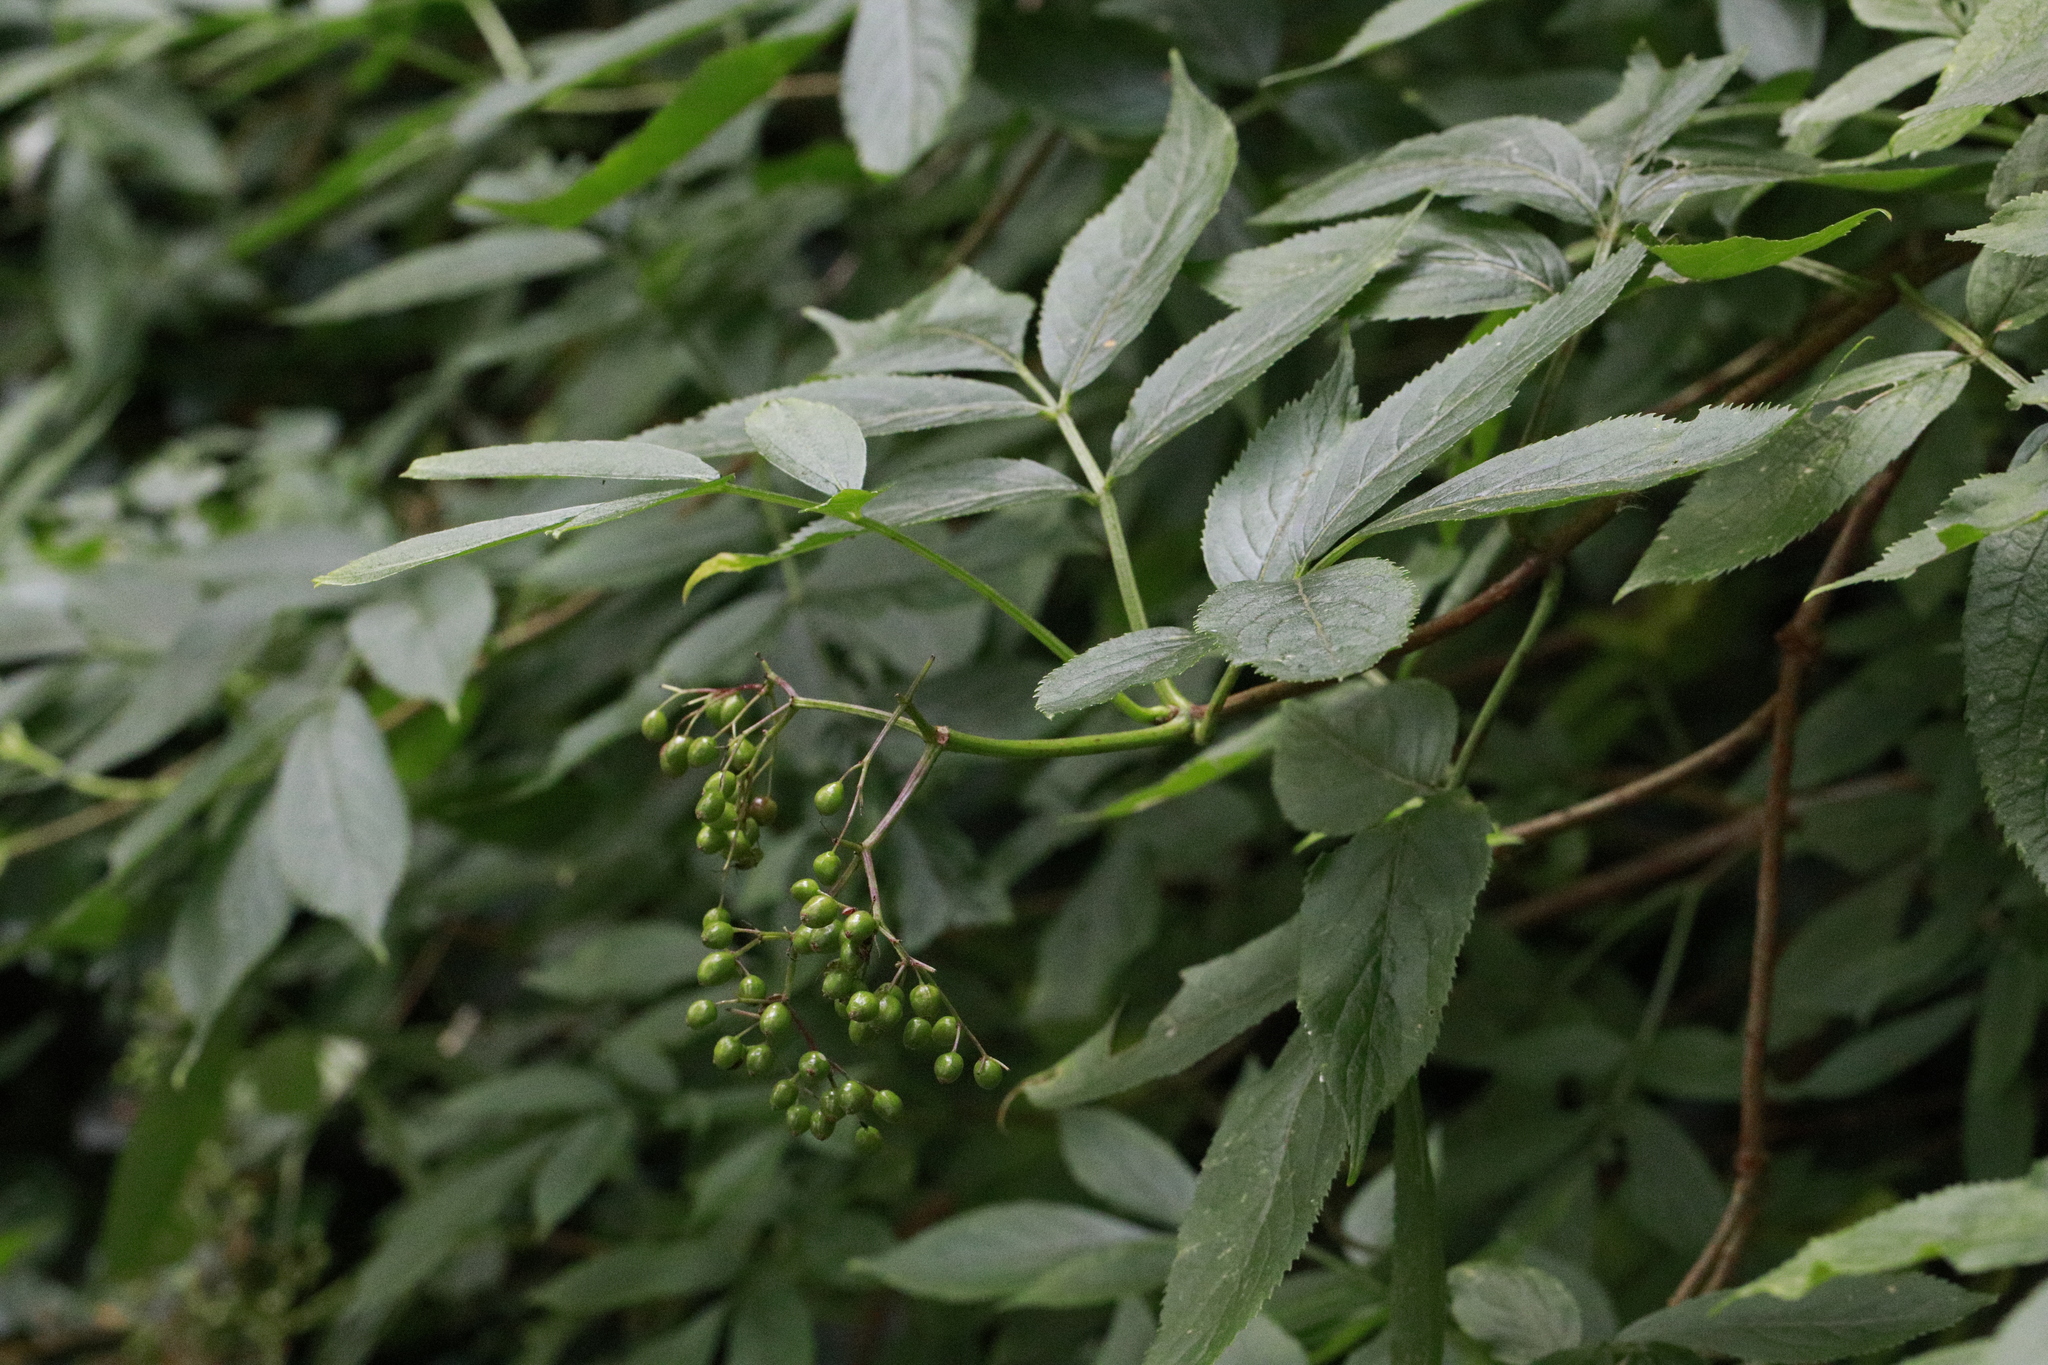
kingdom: Plantae
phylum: Tracheophyta
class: Magnoliopsida
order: Dipsacales
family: Viburnaceae
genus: Sambucus
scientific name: Sambucus nigra
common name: Elder
